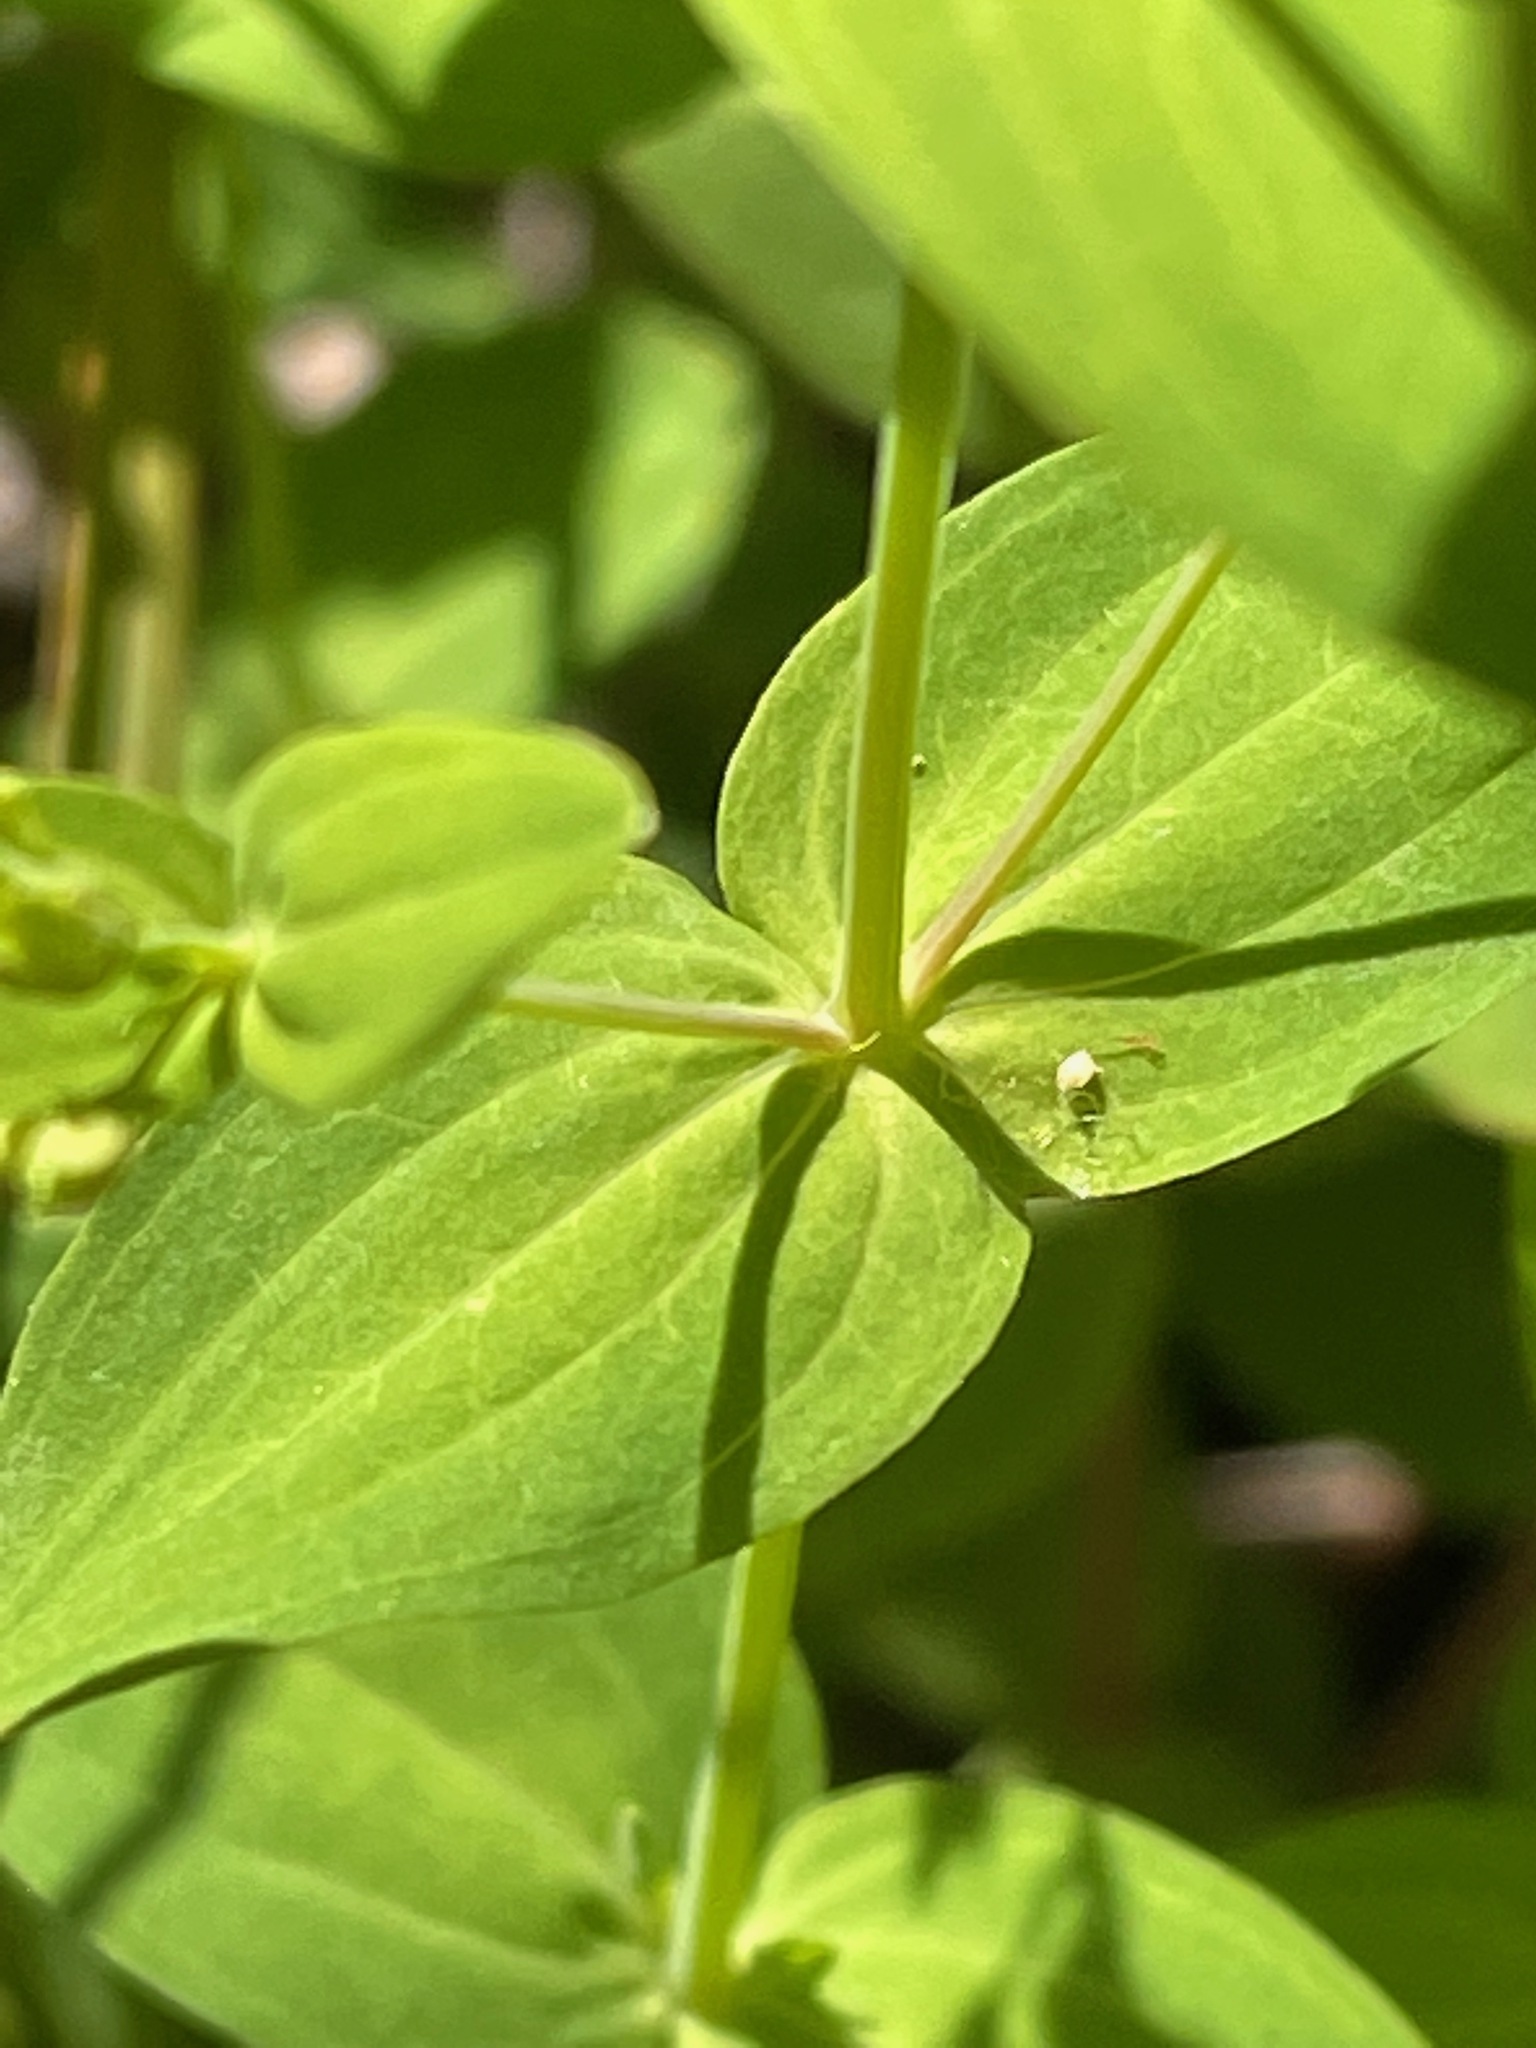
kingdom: Plantae
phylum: Tracheophyta
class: Magnoliopsida
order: Malpighiales
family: Hypericaceae
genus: Hypericum
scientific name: Hypericum mutilum
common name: Dwarf st. john's-wort
